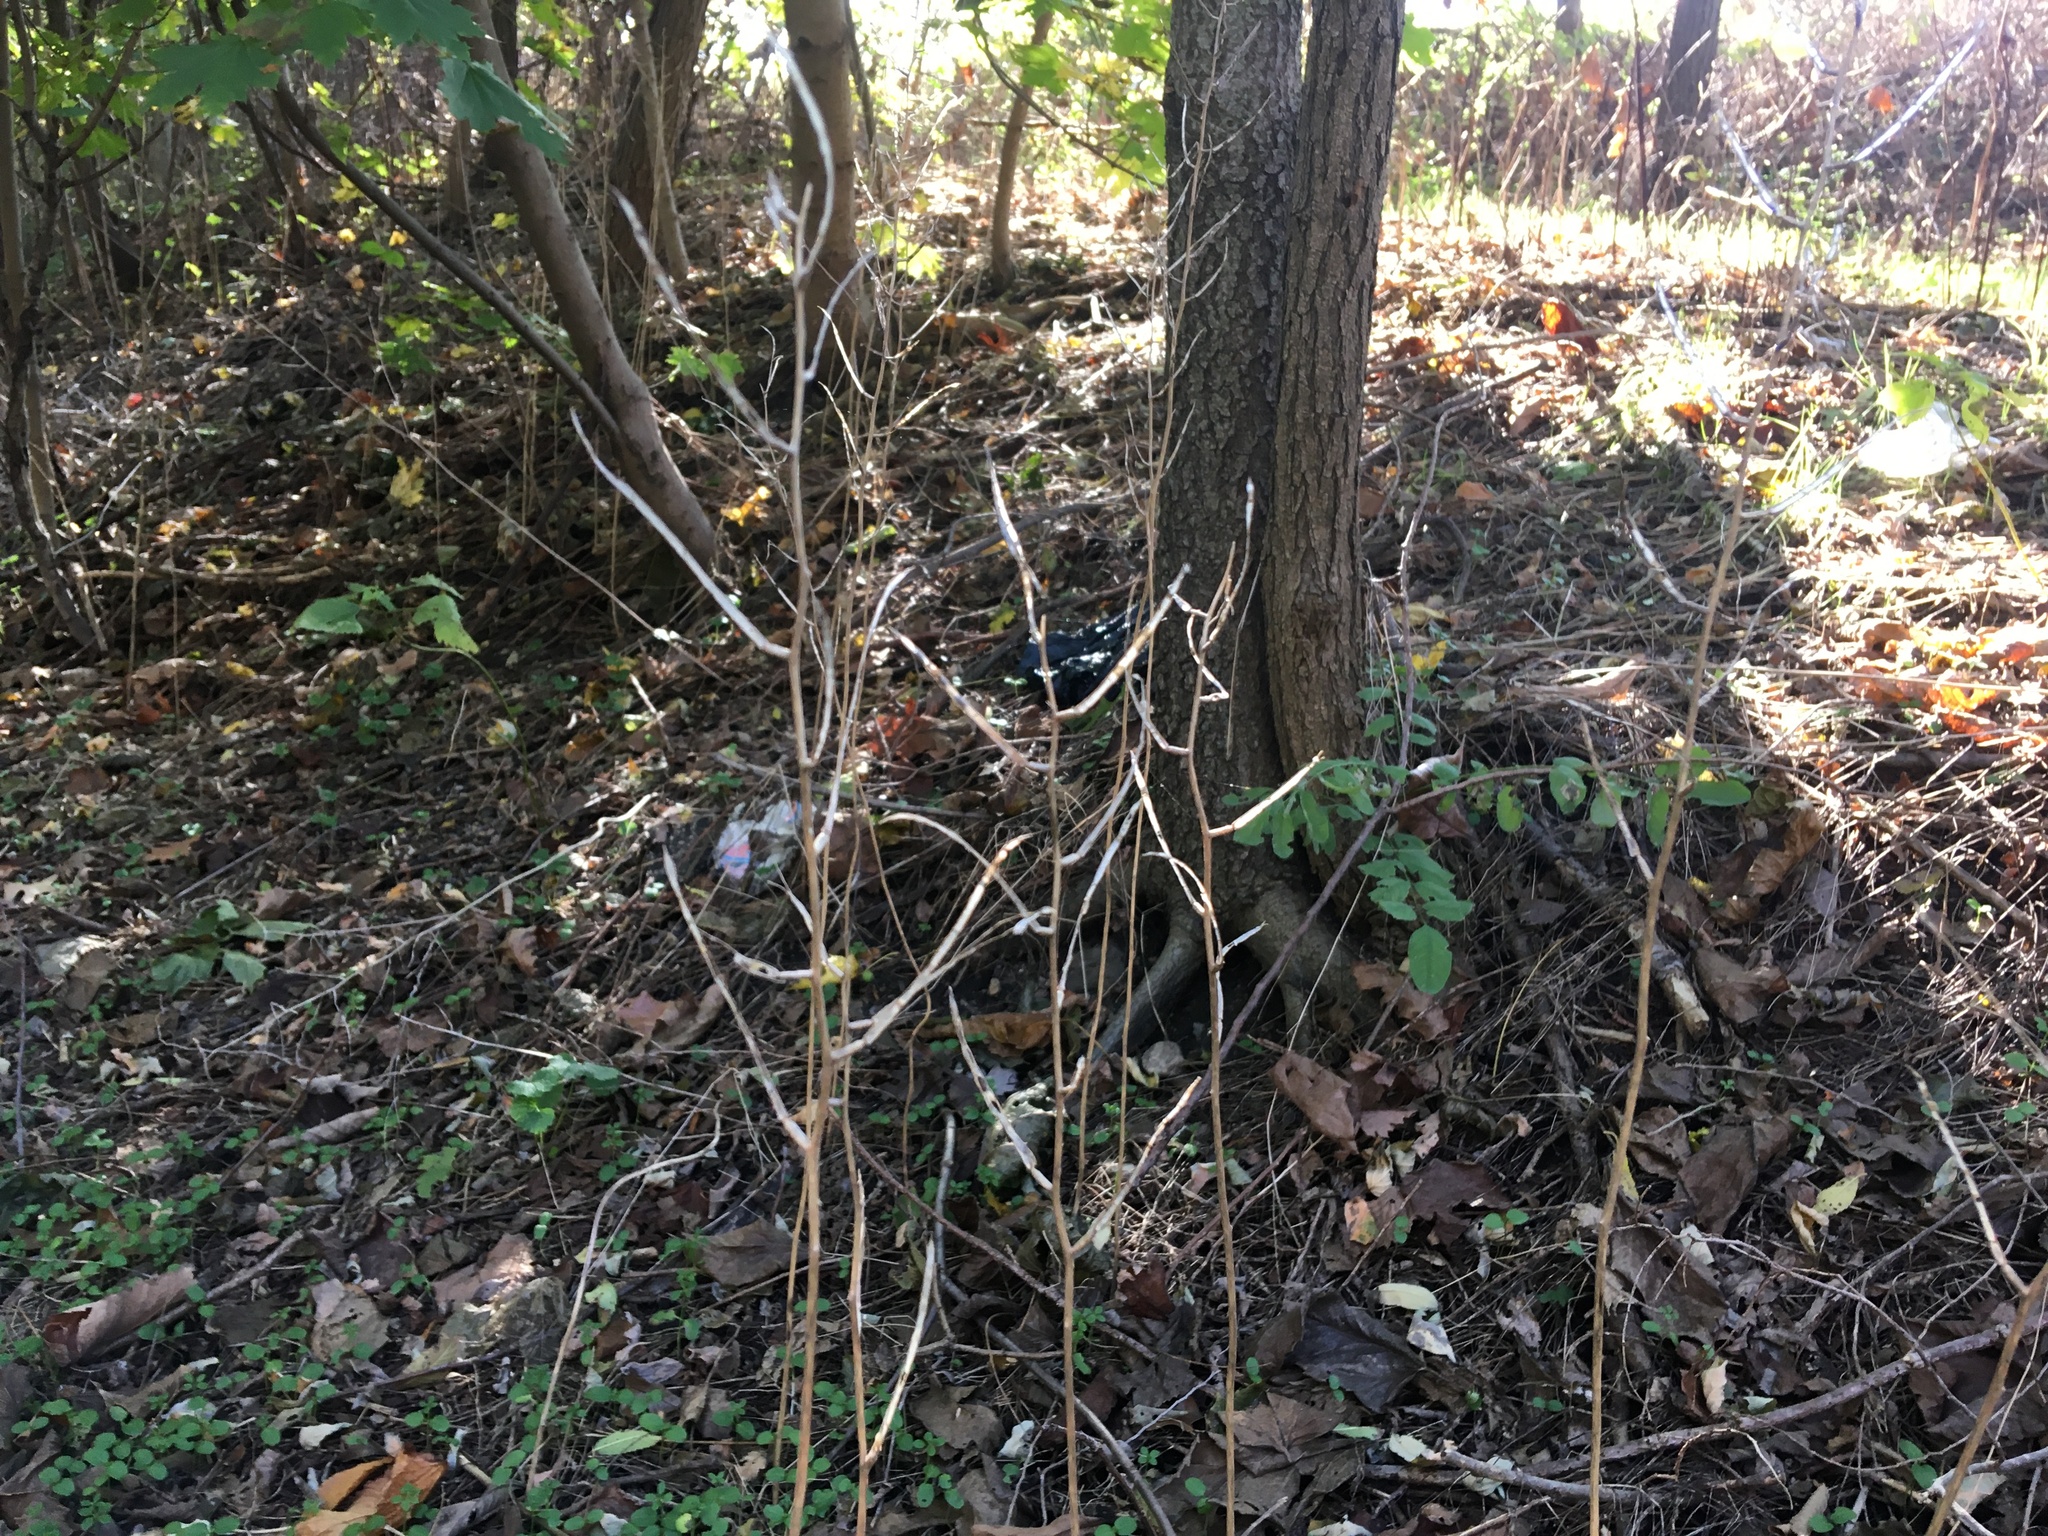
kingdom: Plantae
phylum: Tracheophyta
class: Magnoliopsida
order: Brassicales
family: Brassicaceae
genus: Alliaria
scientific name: Alliaria petiolata
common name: Garlic mustard
